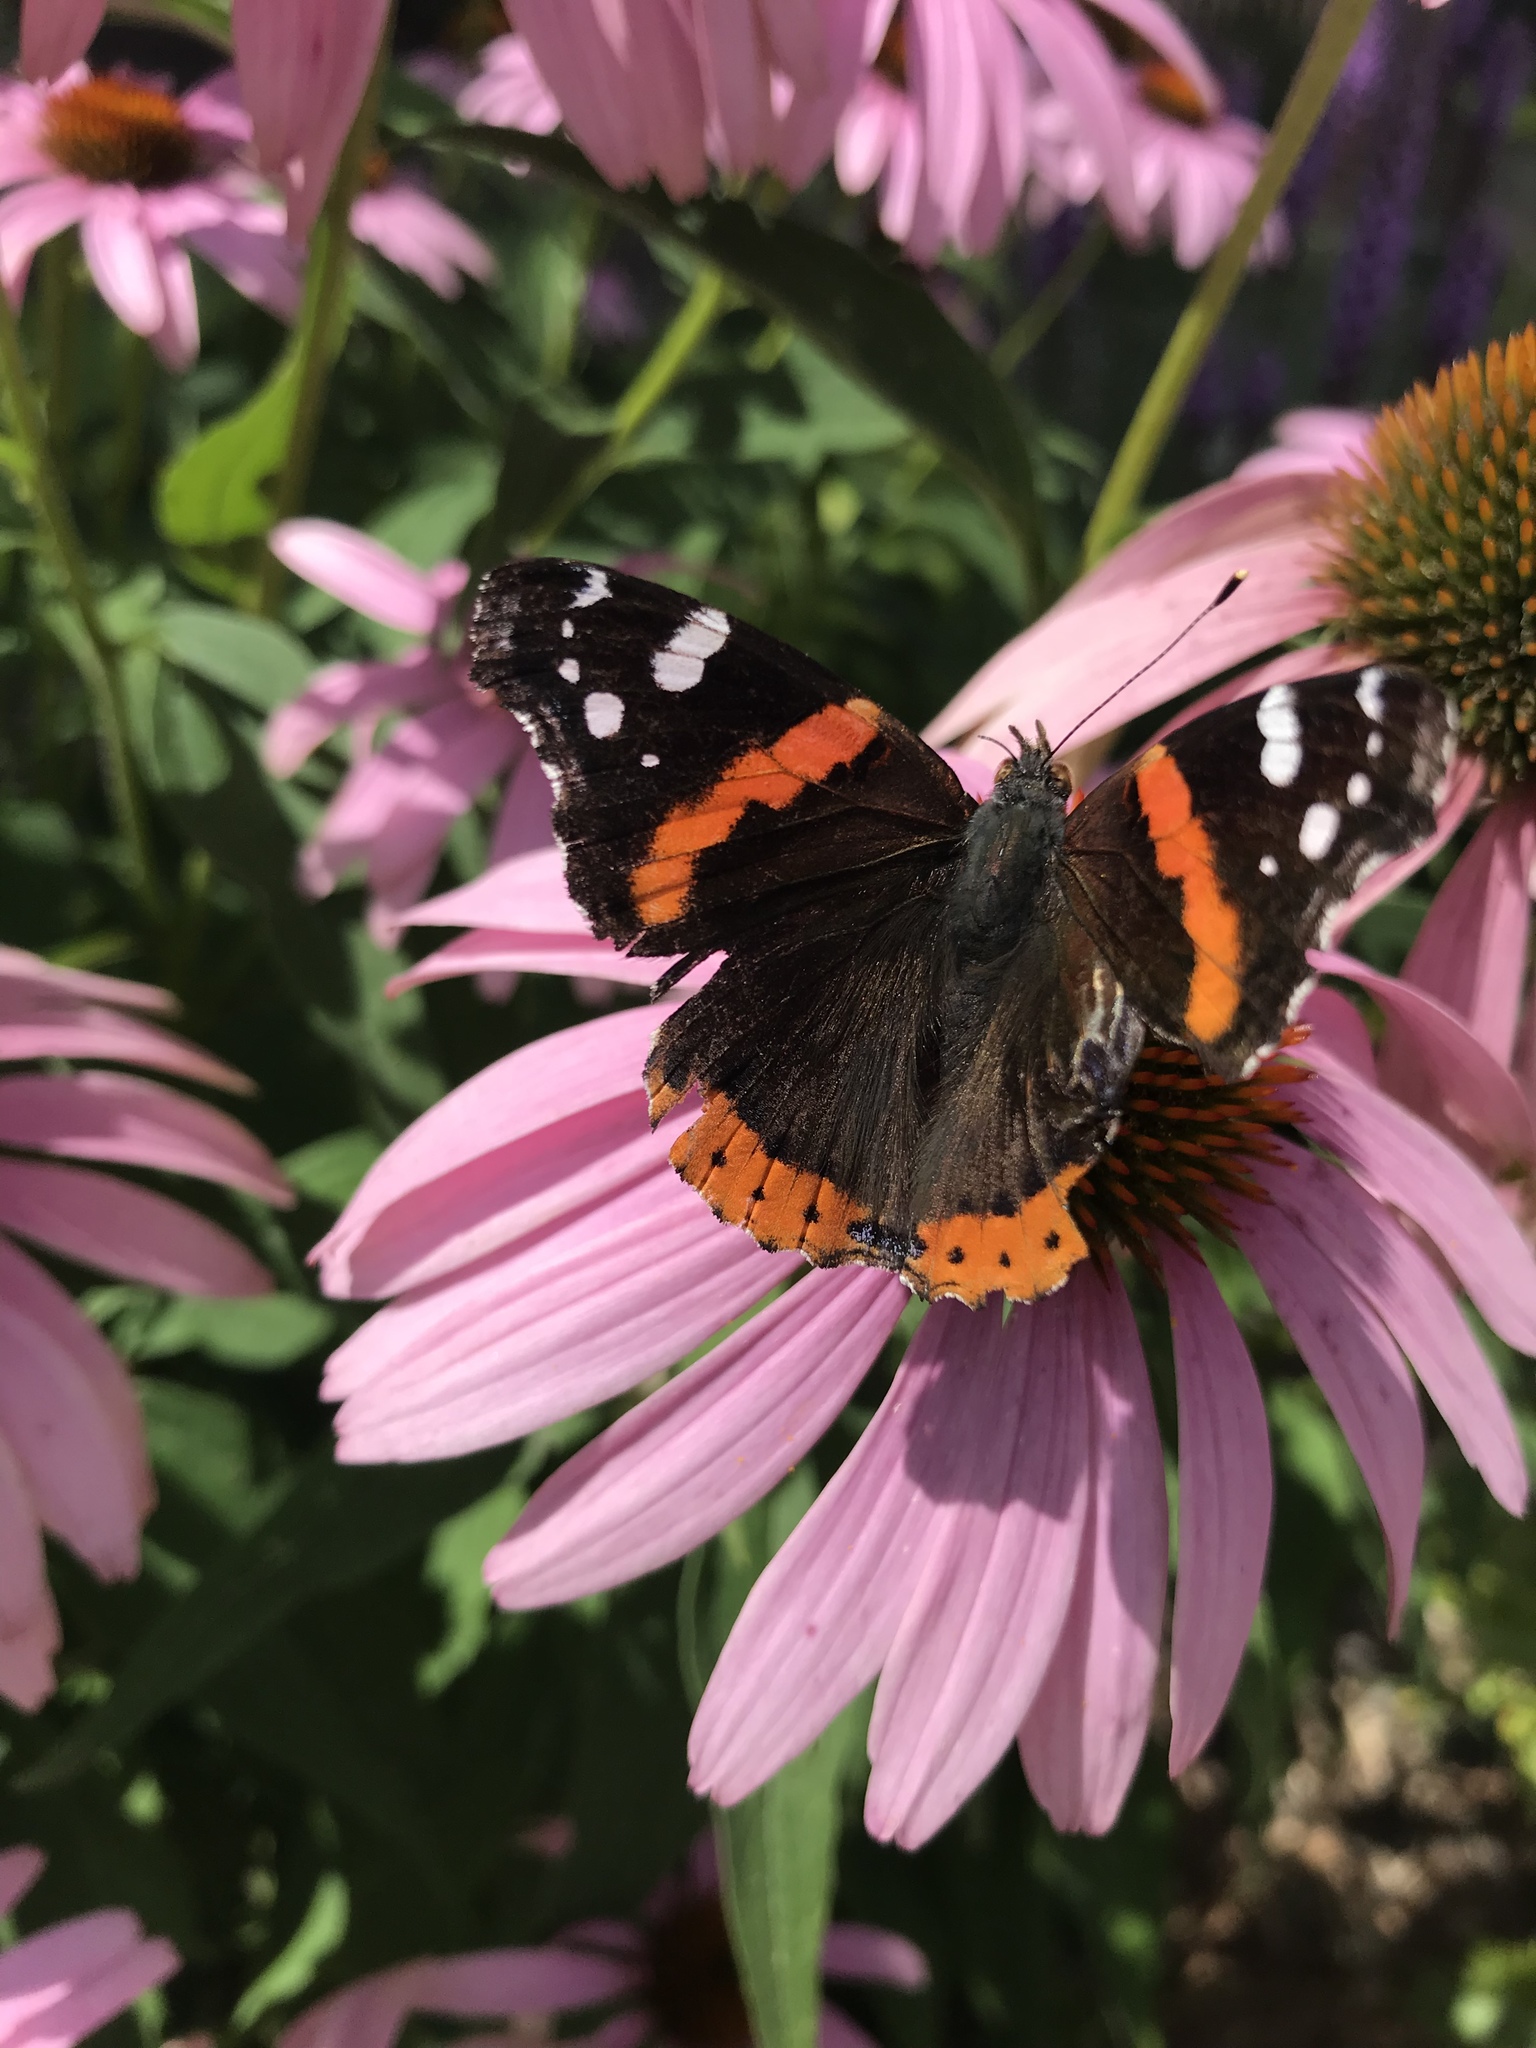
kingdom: Animalia
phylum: Arthropoda
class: Insecta
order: Lepidoptera
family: Nymphalidae
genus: Vanessa
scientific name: Vanessa atalanta
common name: Red admiral
